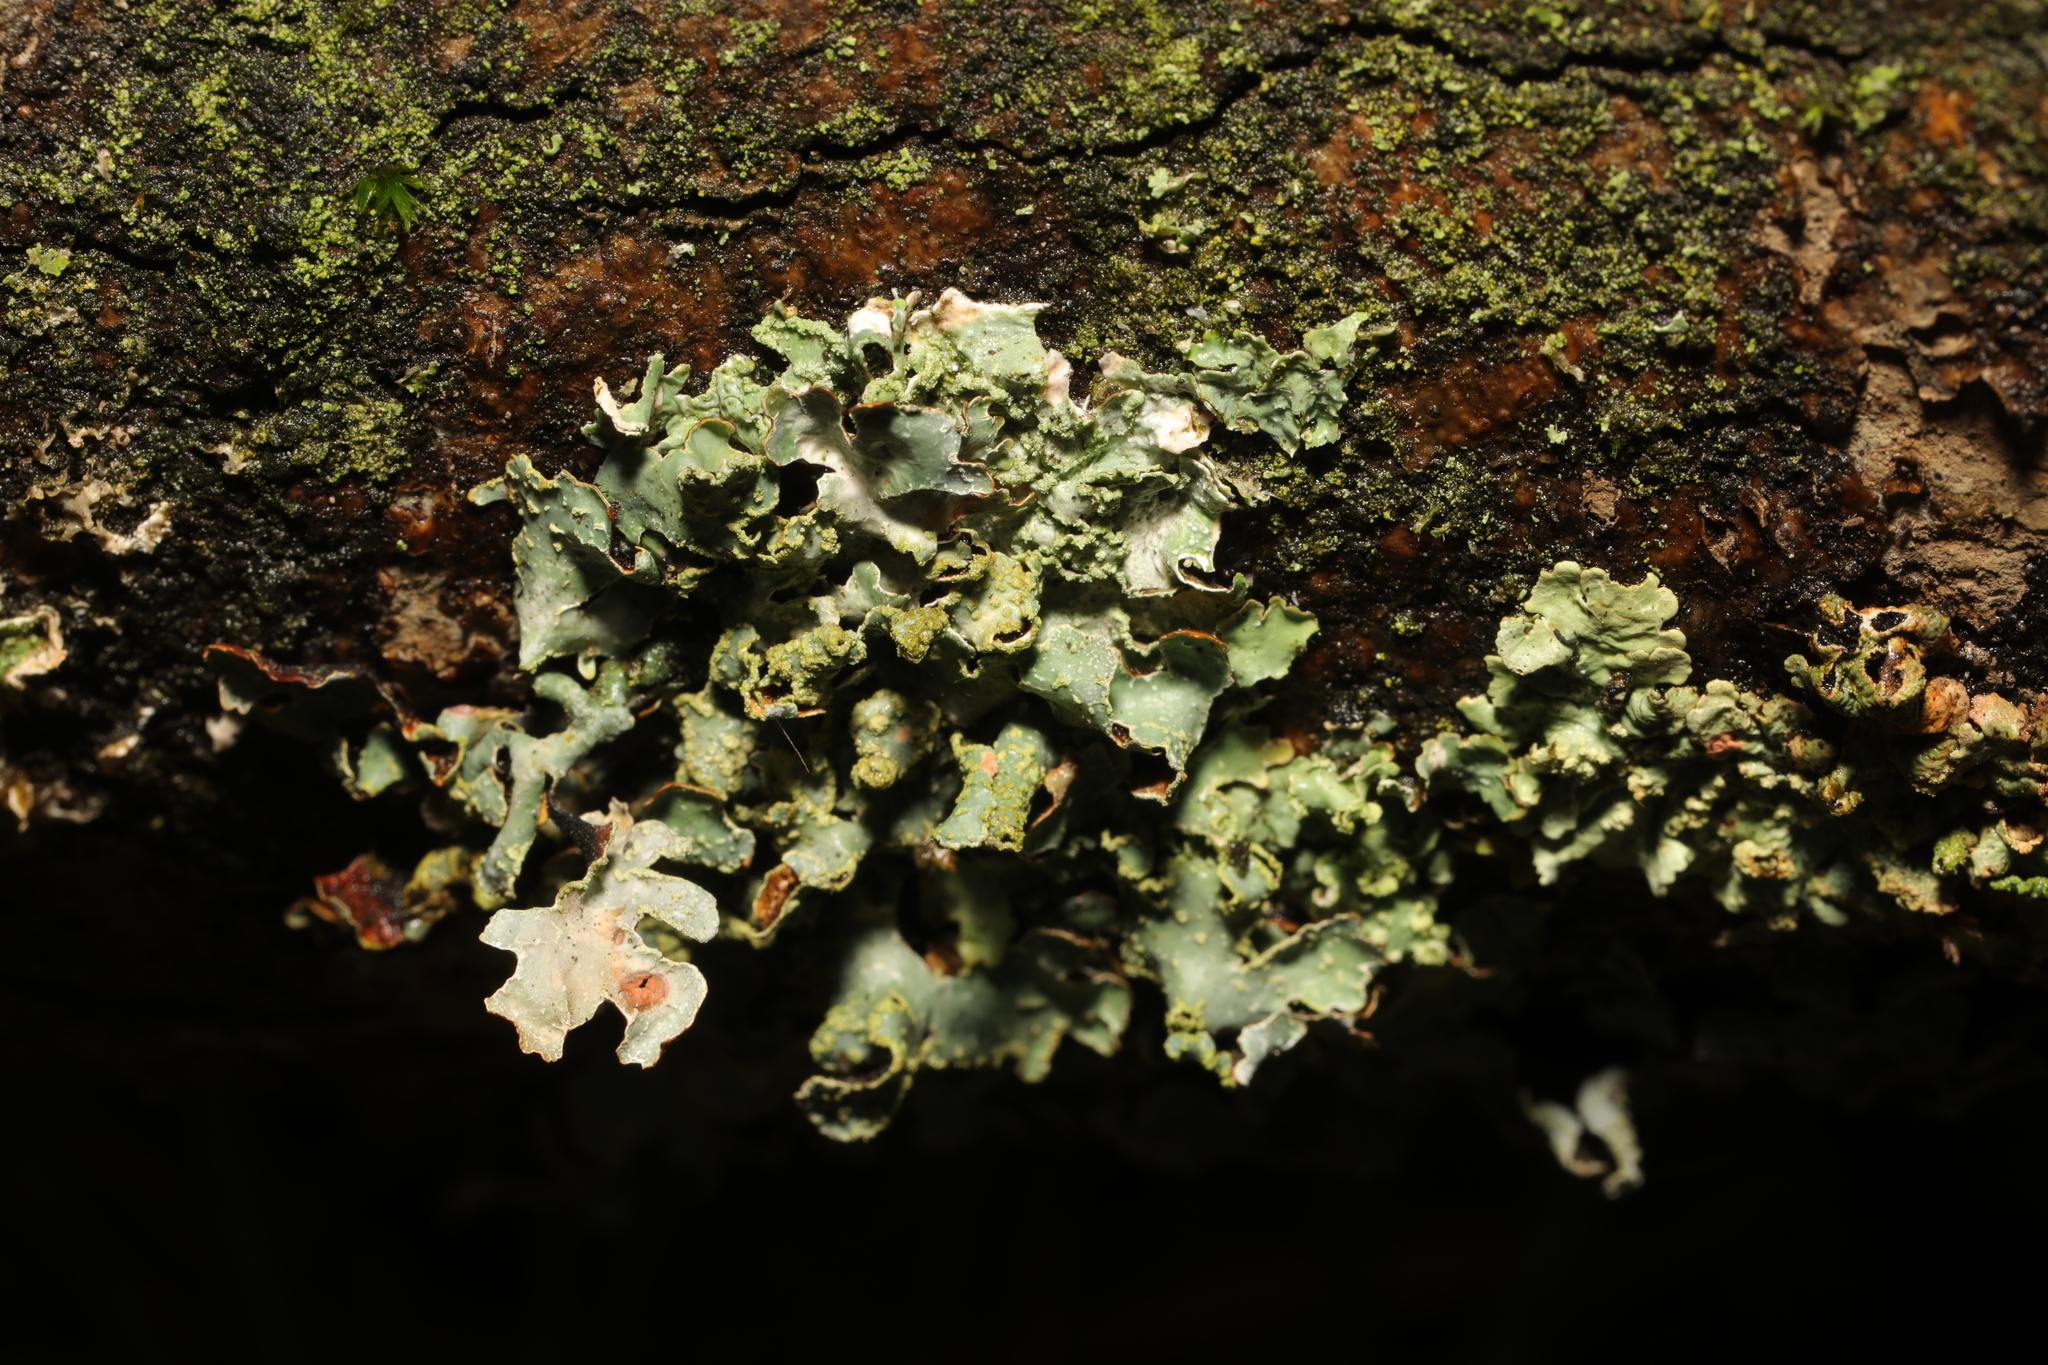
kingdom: Fungi
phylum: Ascomycota
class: Lecanoromycetes
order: Lecanorales
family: Parmeliaceae
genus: Parmelia
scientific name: Parmelia sulcata
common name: Netted shield lichen
